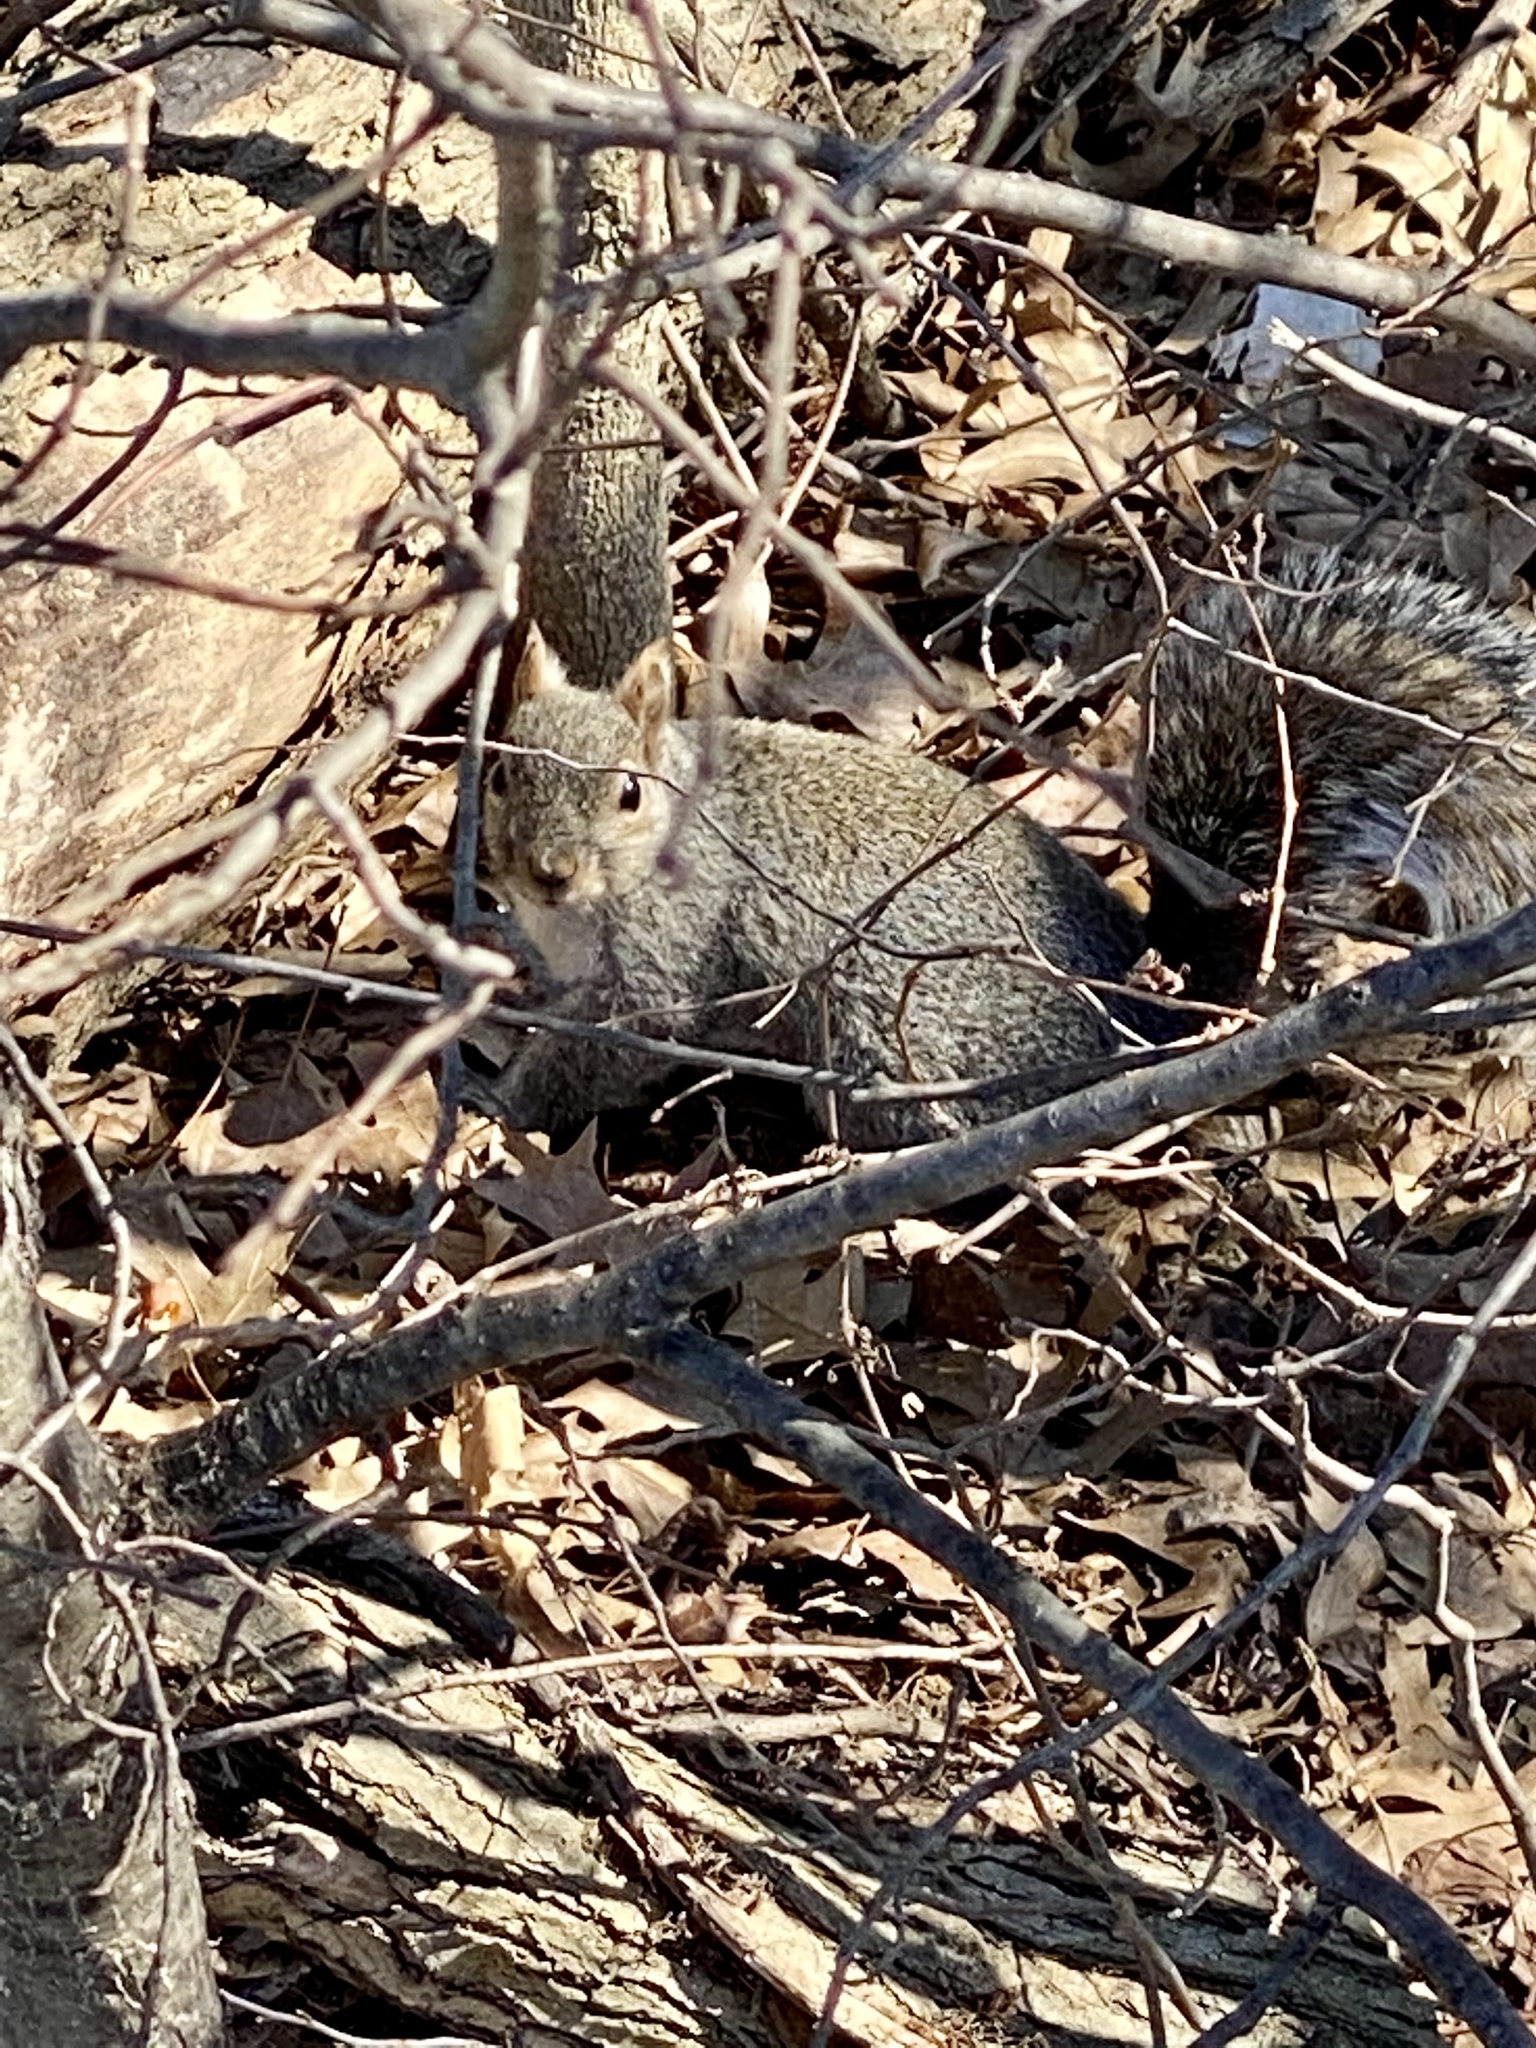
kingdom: Animalia
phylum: Chordata
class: Mammalia
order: Rodentia
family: Sciuridae
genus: Sciurus
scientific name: Sciurus carolinensis
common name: Eastern gray squirrel
